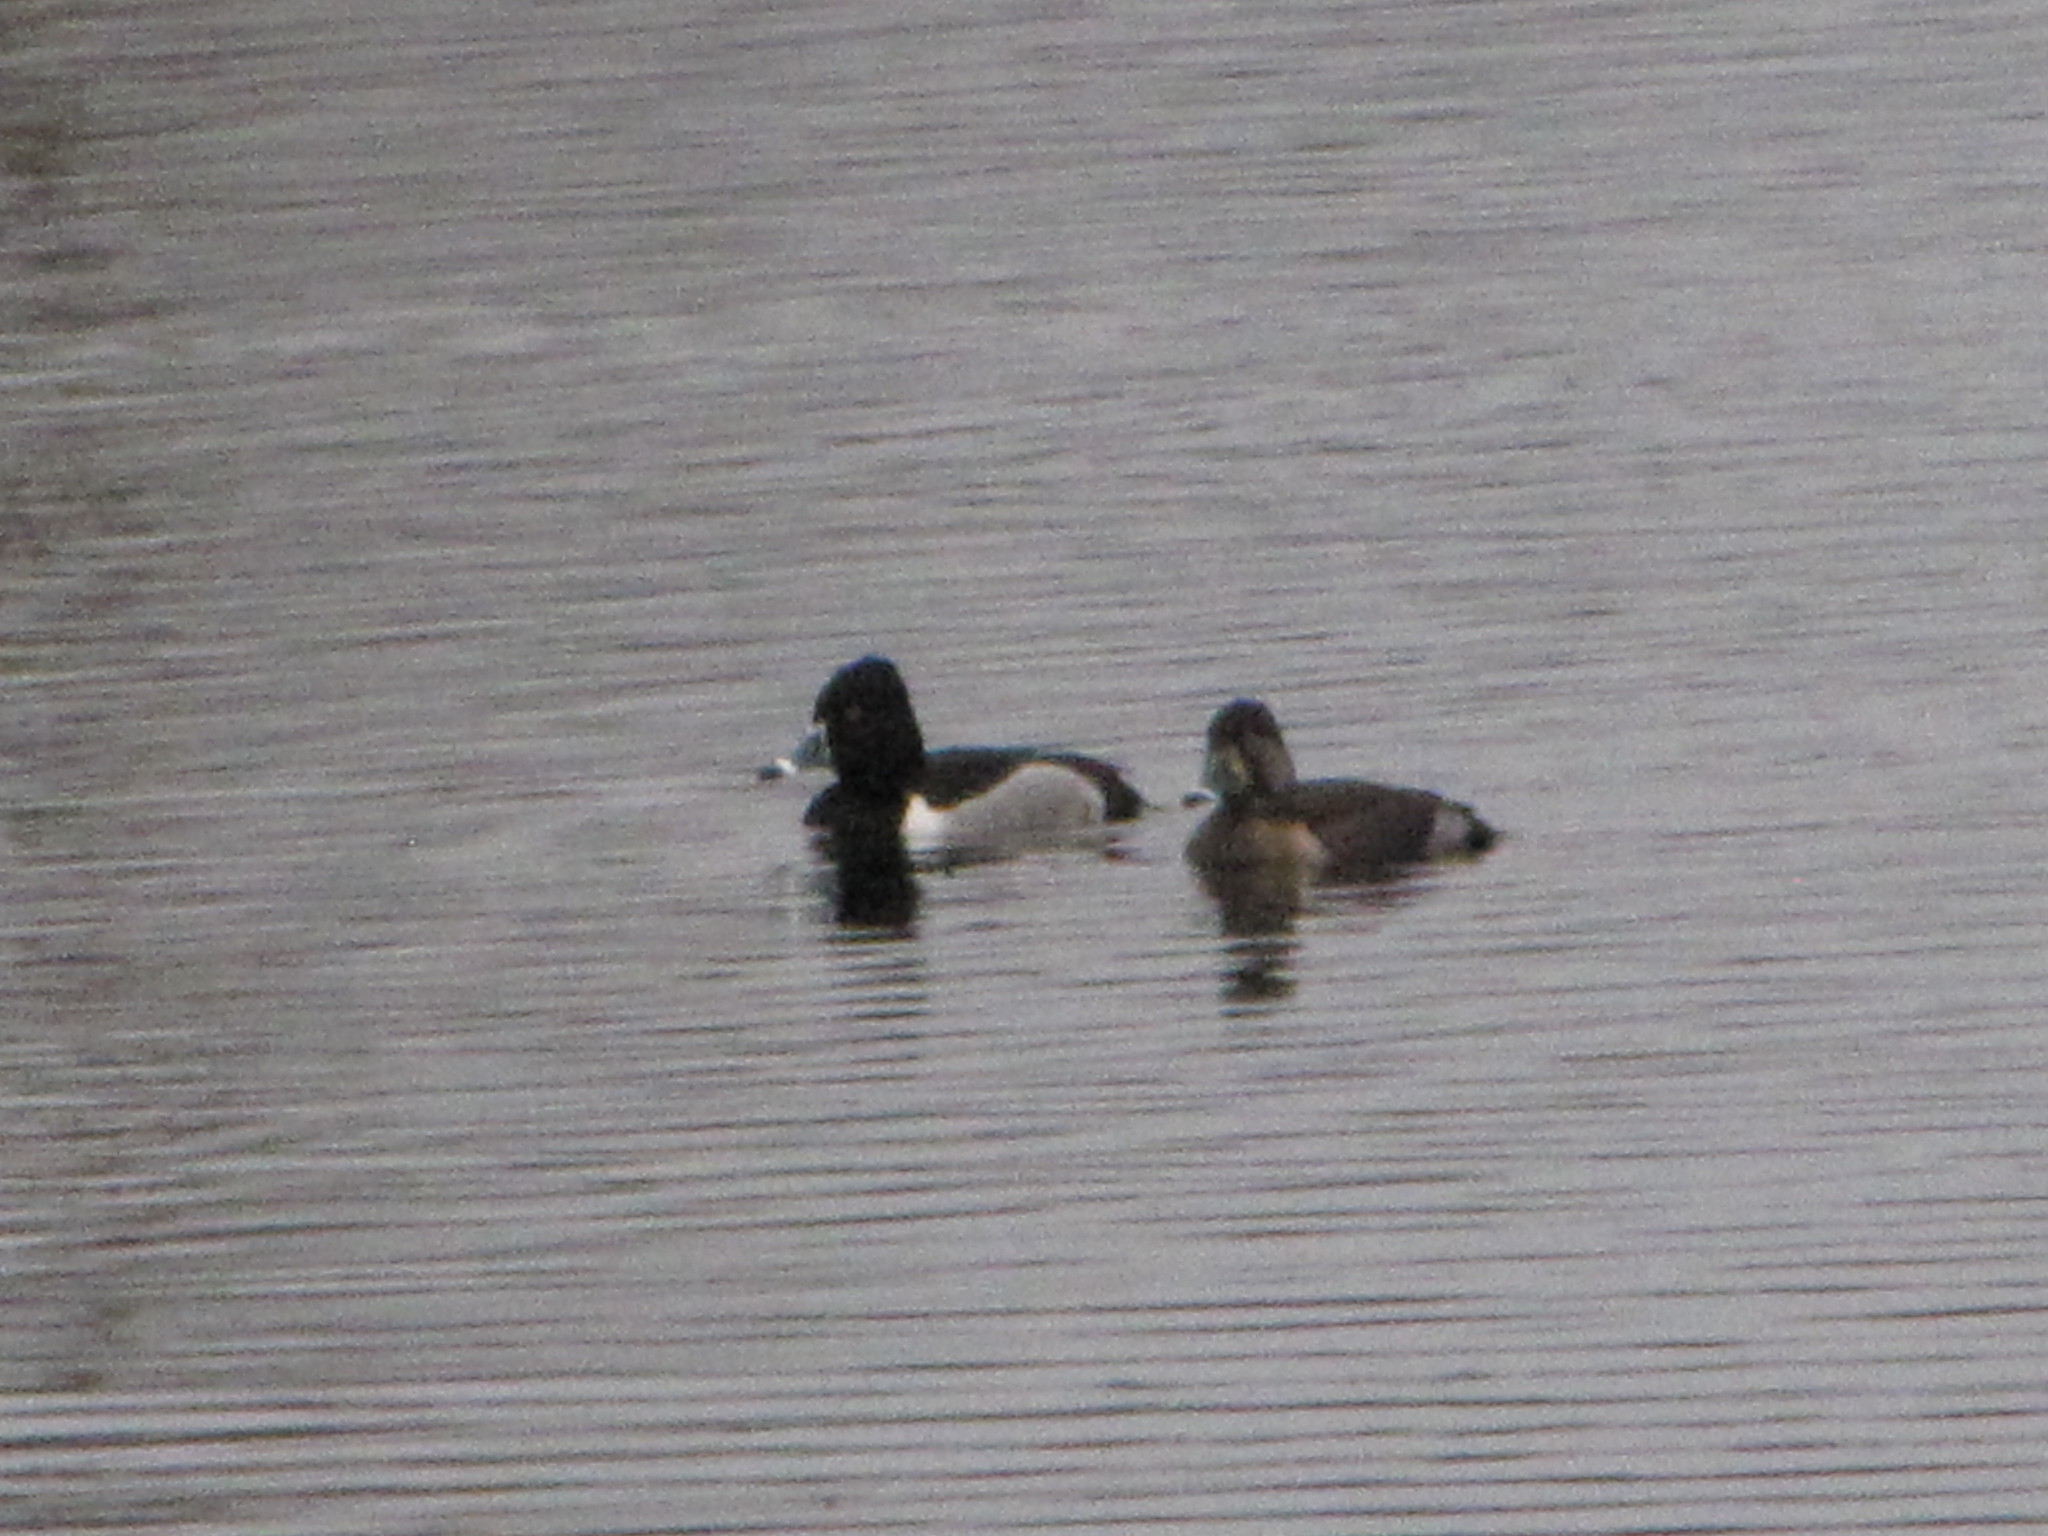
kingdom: Animalia
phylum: Chordata
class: Aves
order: Anseriformes
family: Anatidae
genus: Aythya
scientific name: Aythya collaris
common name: Ring-necked duck
